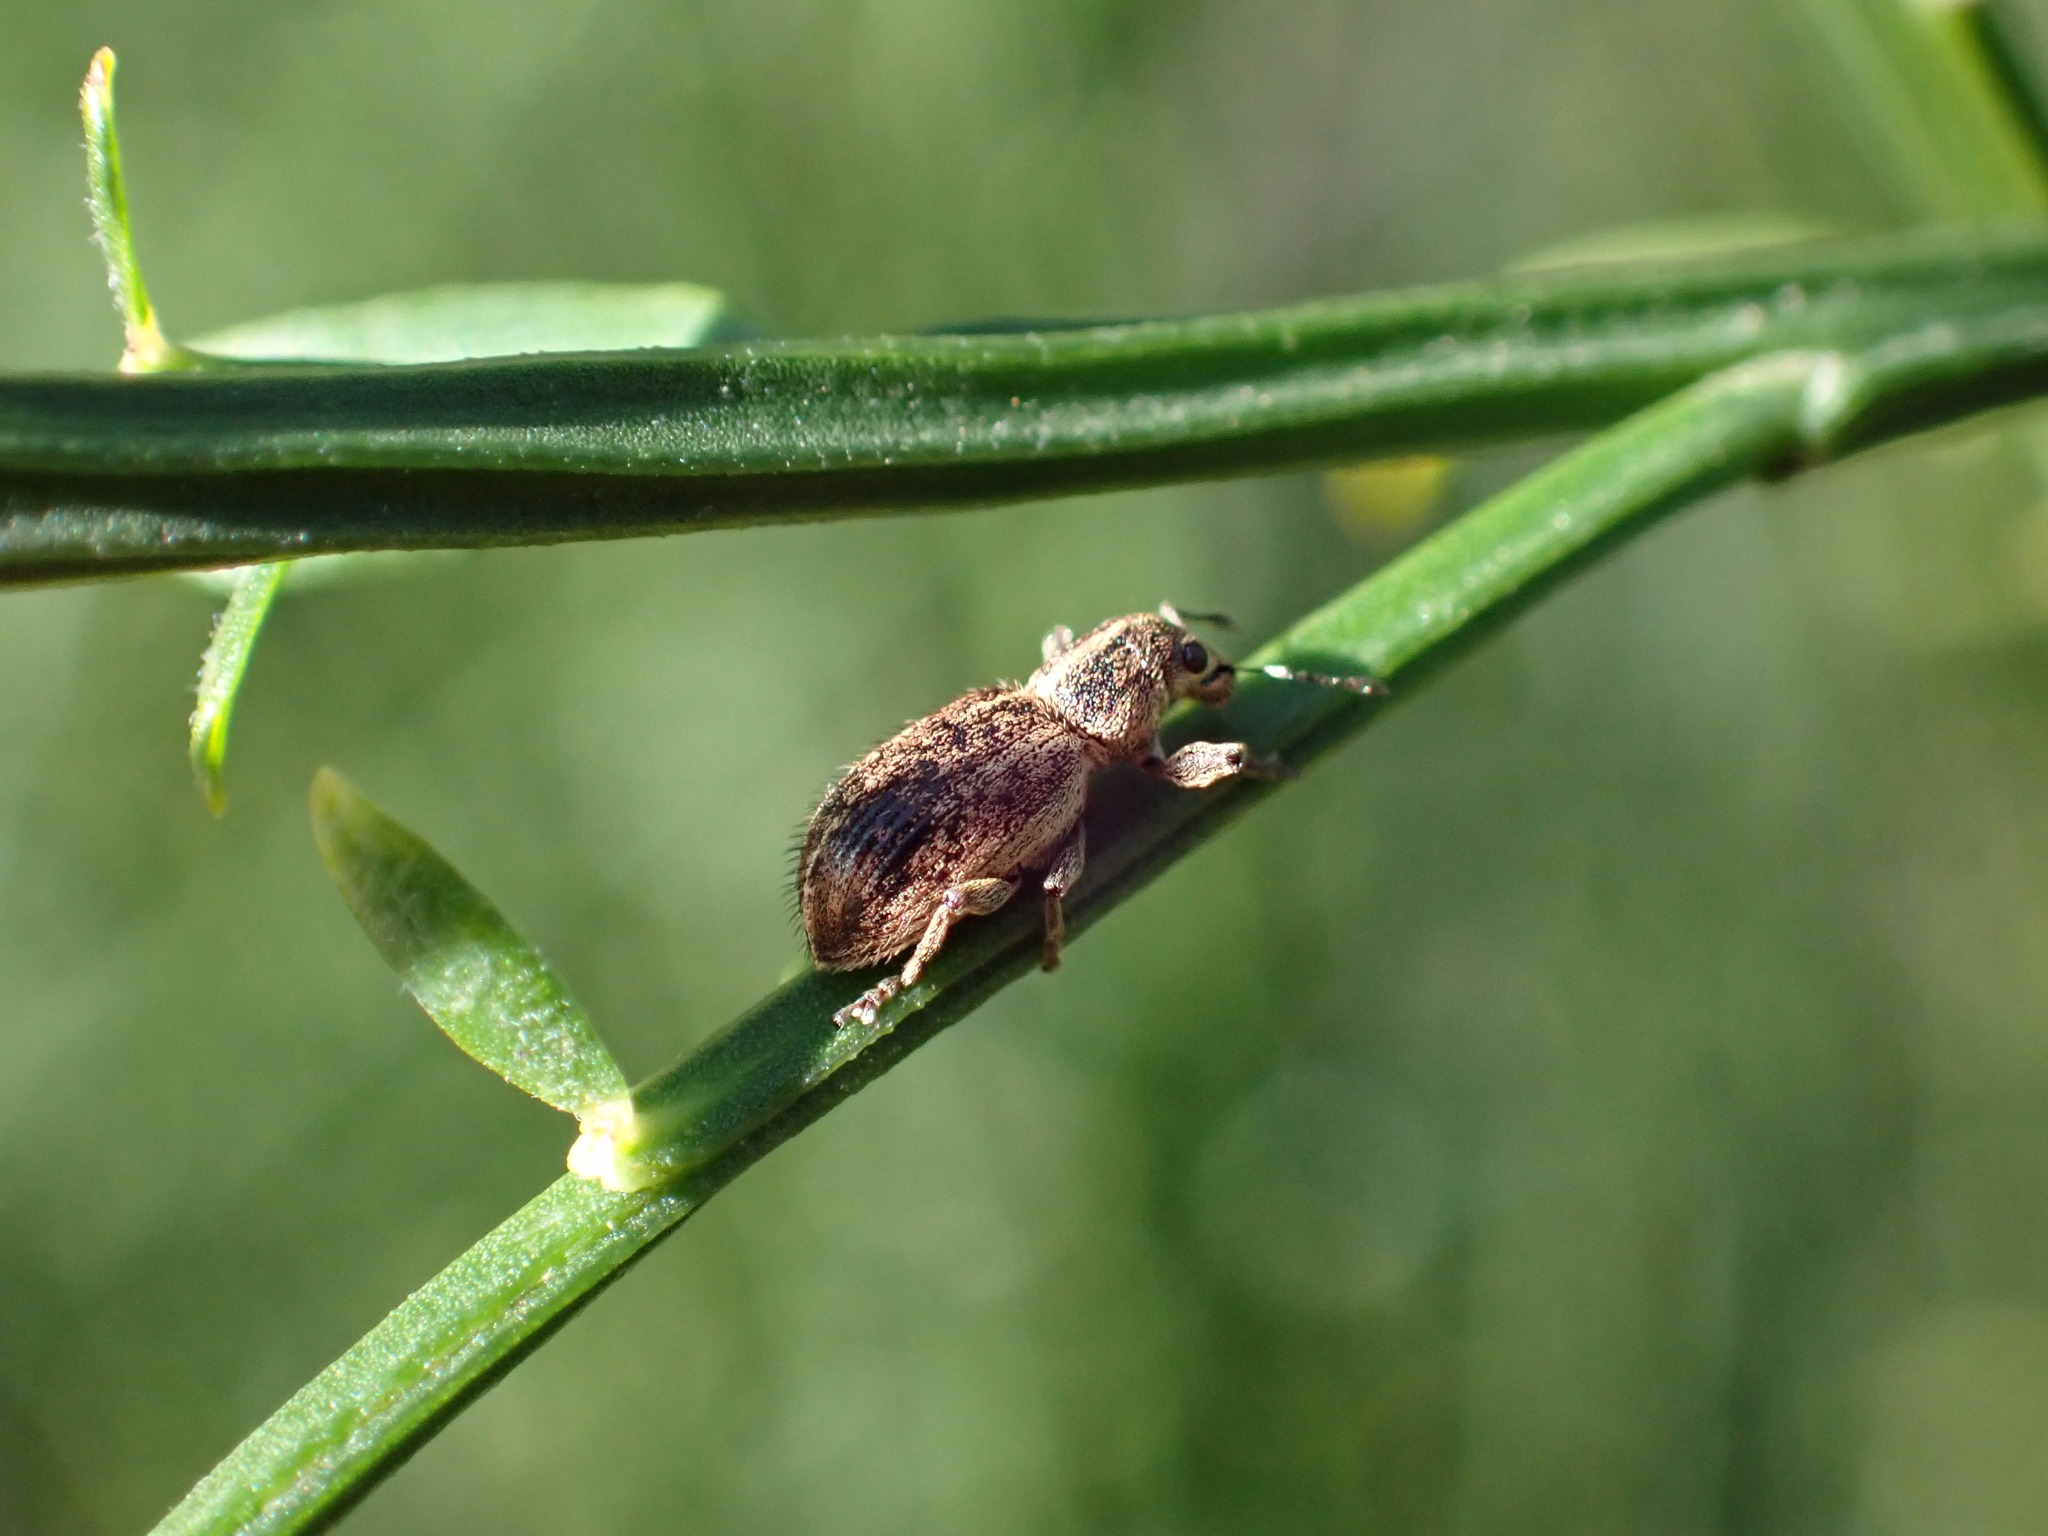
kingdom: Animalia
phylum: Arthropoda
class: Insecta
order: Coleoptera
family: Curculionidae
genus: Andrion
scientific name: Andrion regensteinense
